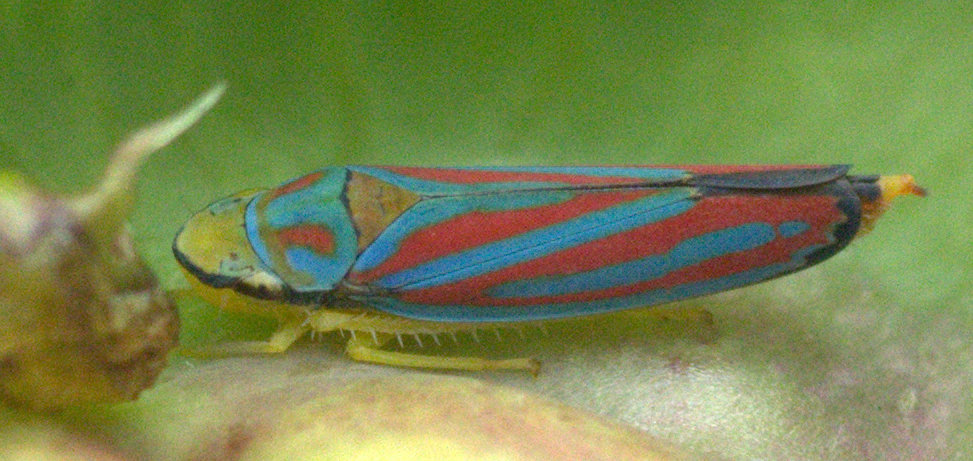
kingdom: Animalia
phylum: Arthropoda
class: Insecta
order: Hemiptera
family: Cicadellidae
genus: Graphocephala
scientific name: Graphocephala coccinea
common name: Candy-striped leafhopper
